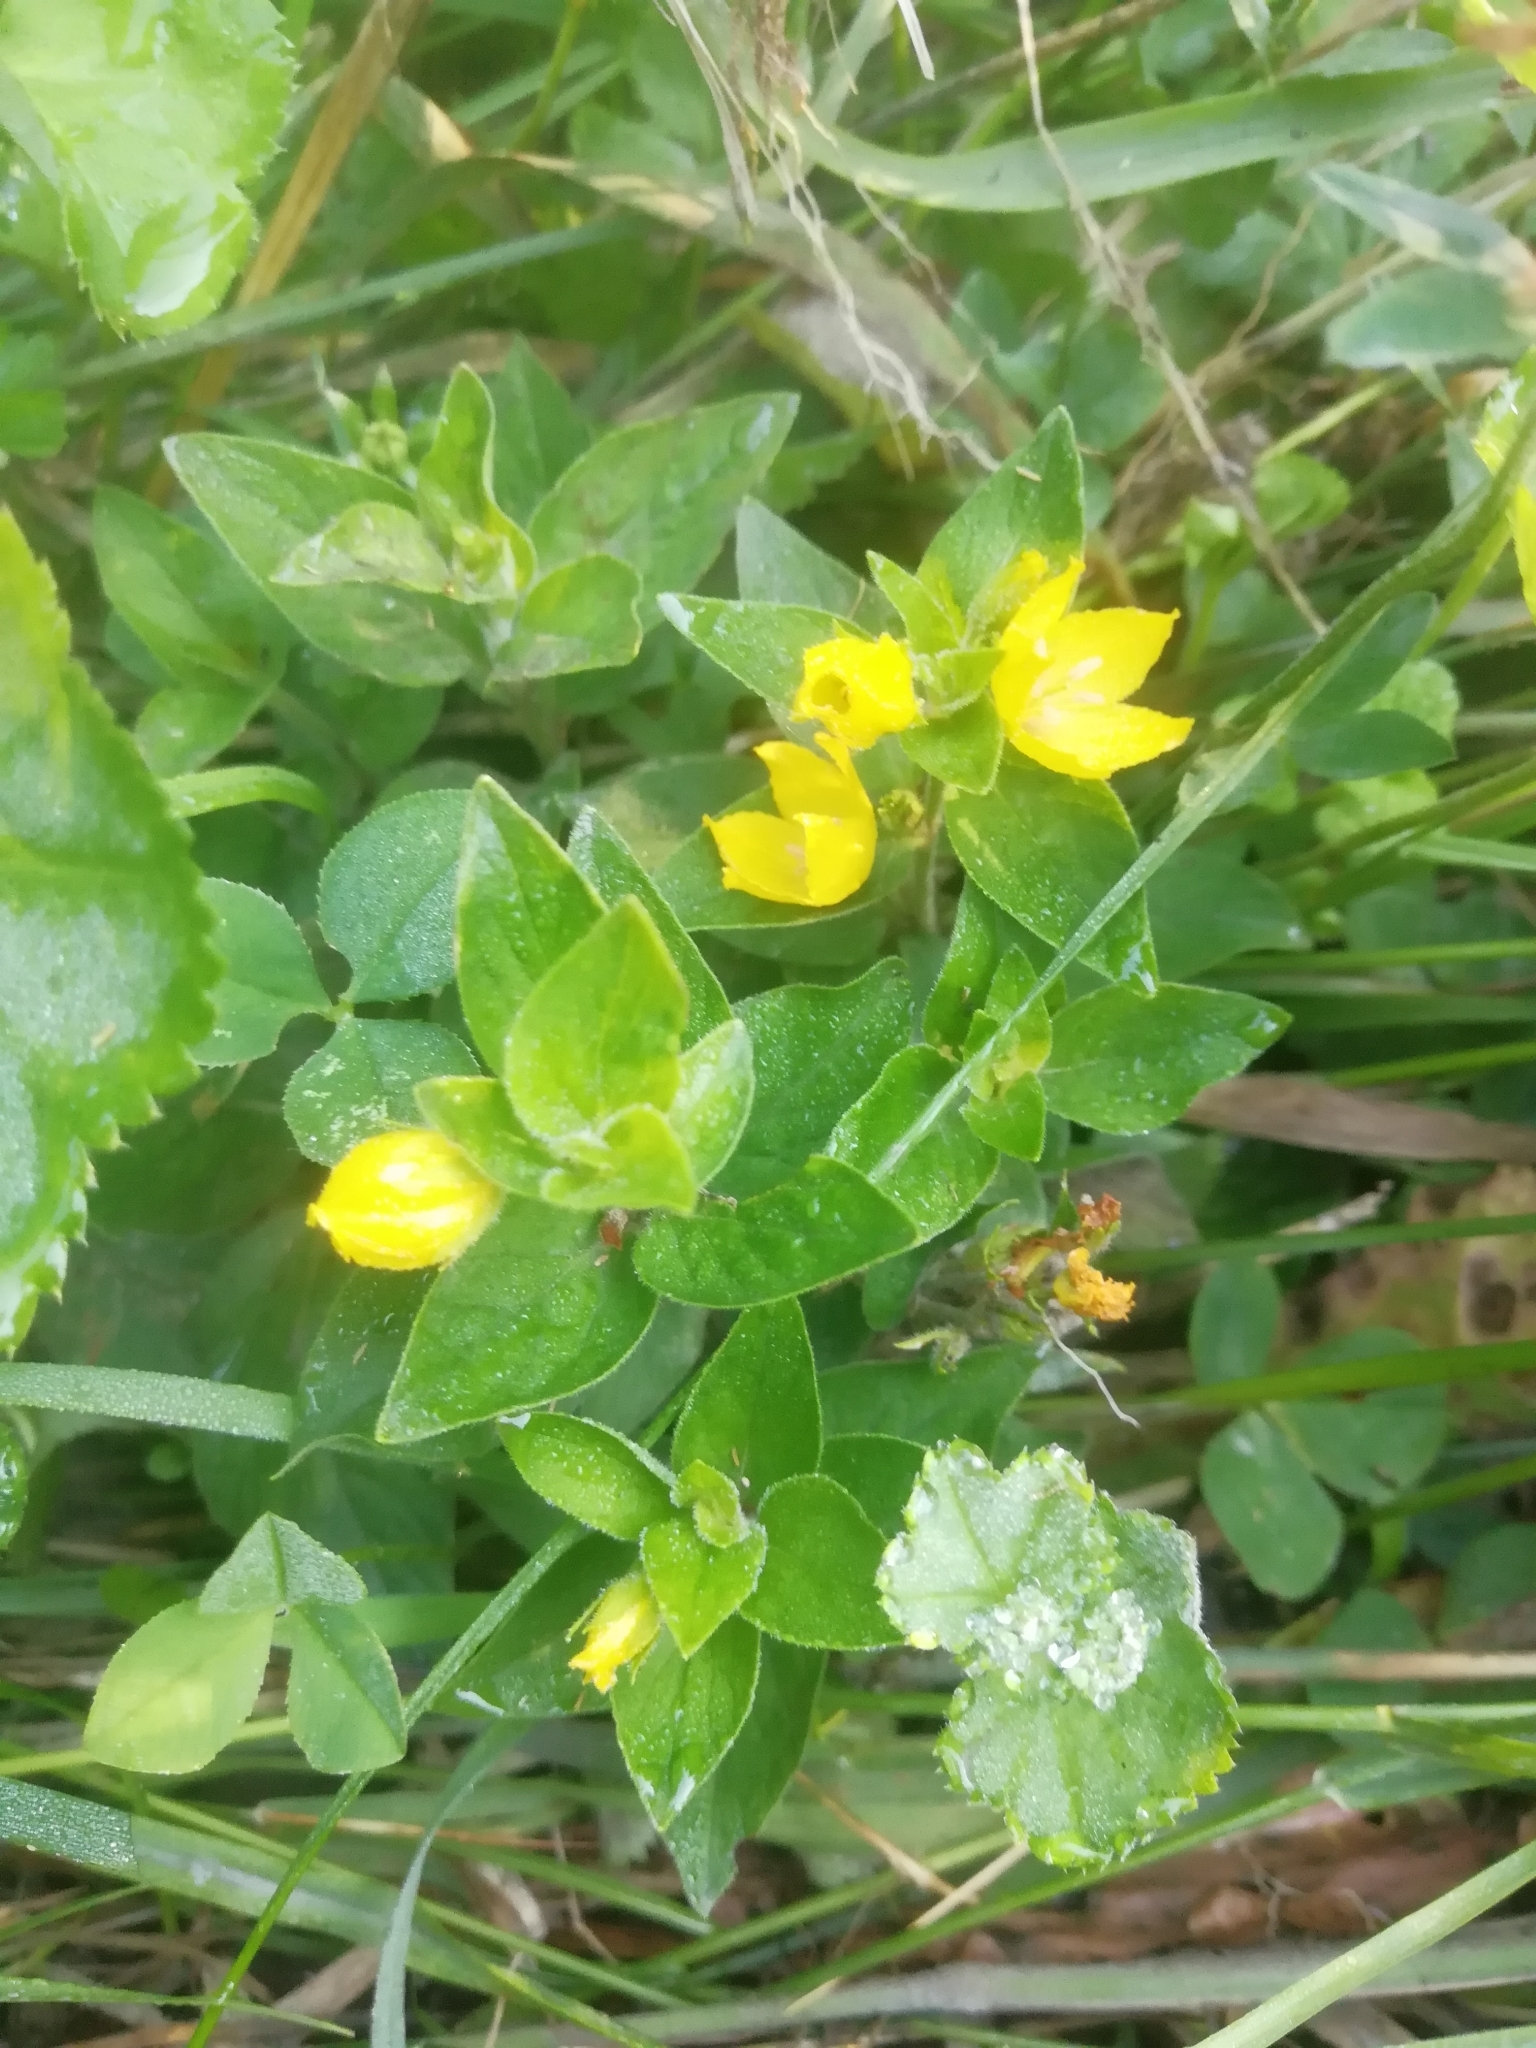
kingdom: Plantae
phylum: Tracheophyta
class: Magnoliopsida
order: Ericales
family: Primulaceae
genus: Lysimachia
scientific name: Lysimachia verticillaris
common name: Yellow loosestrife
